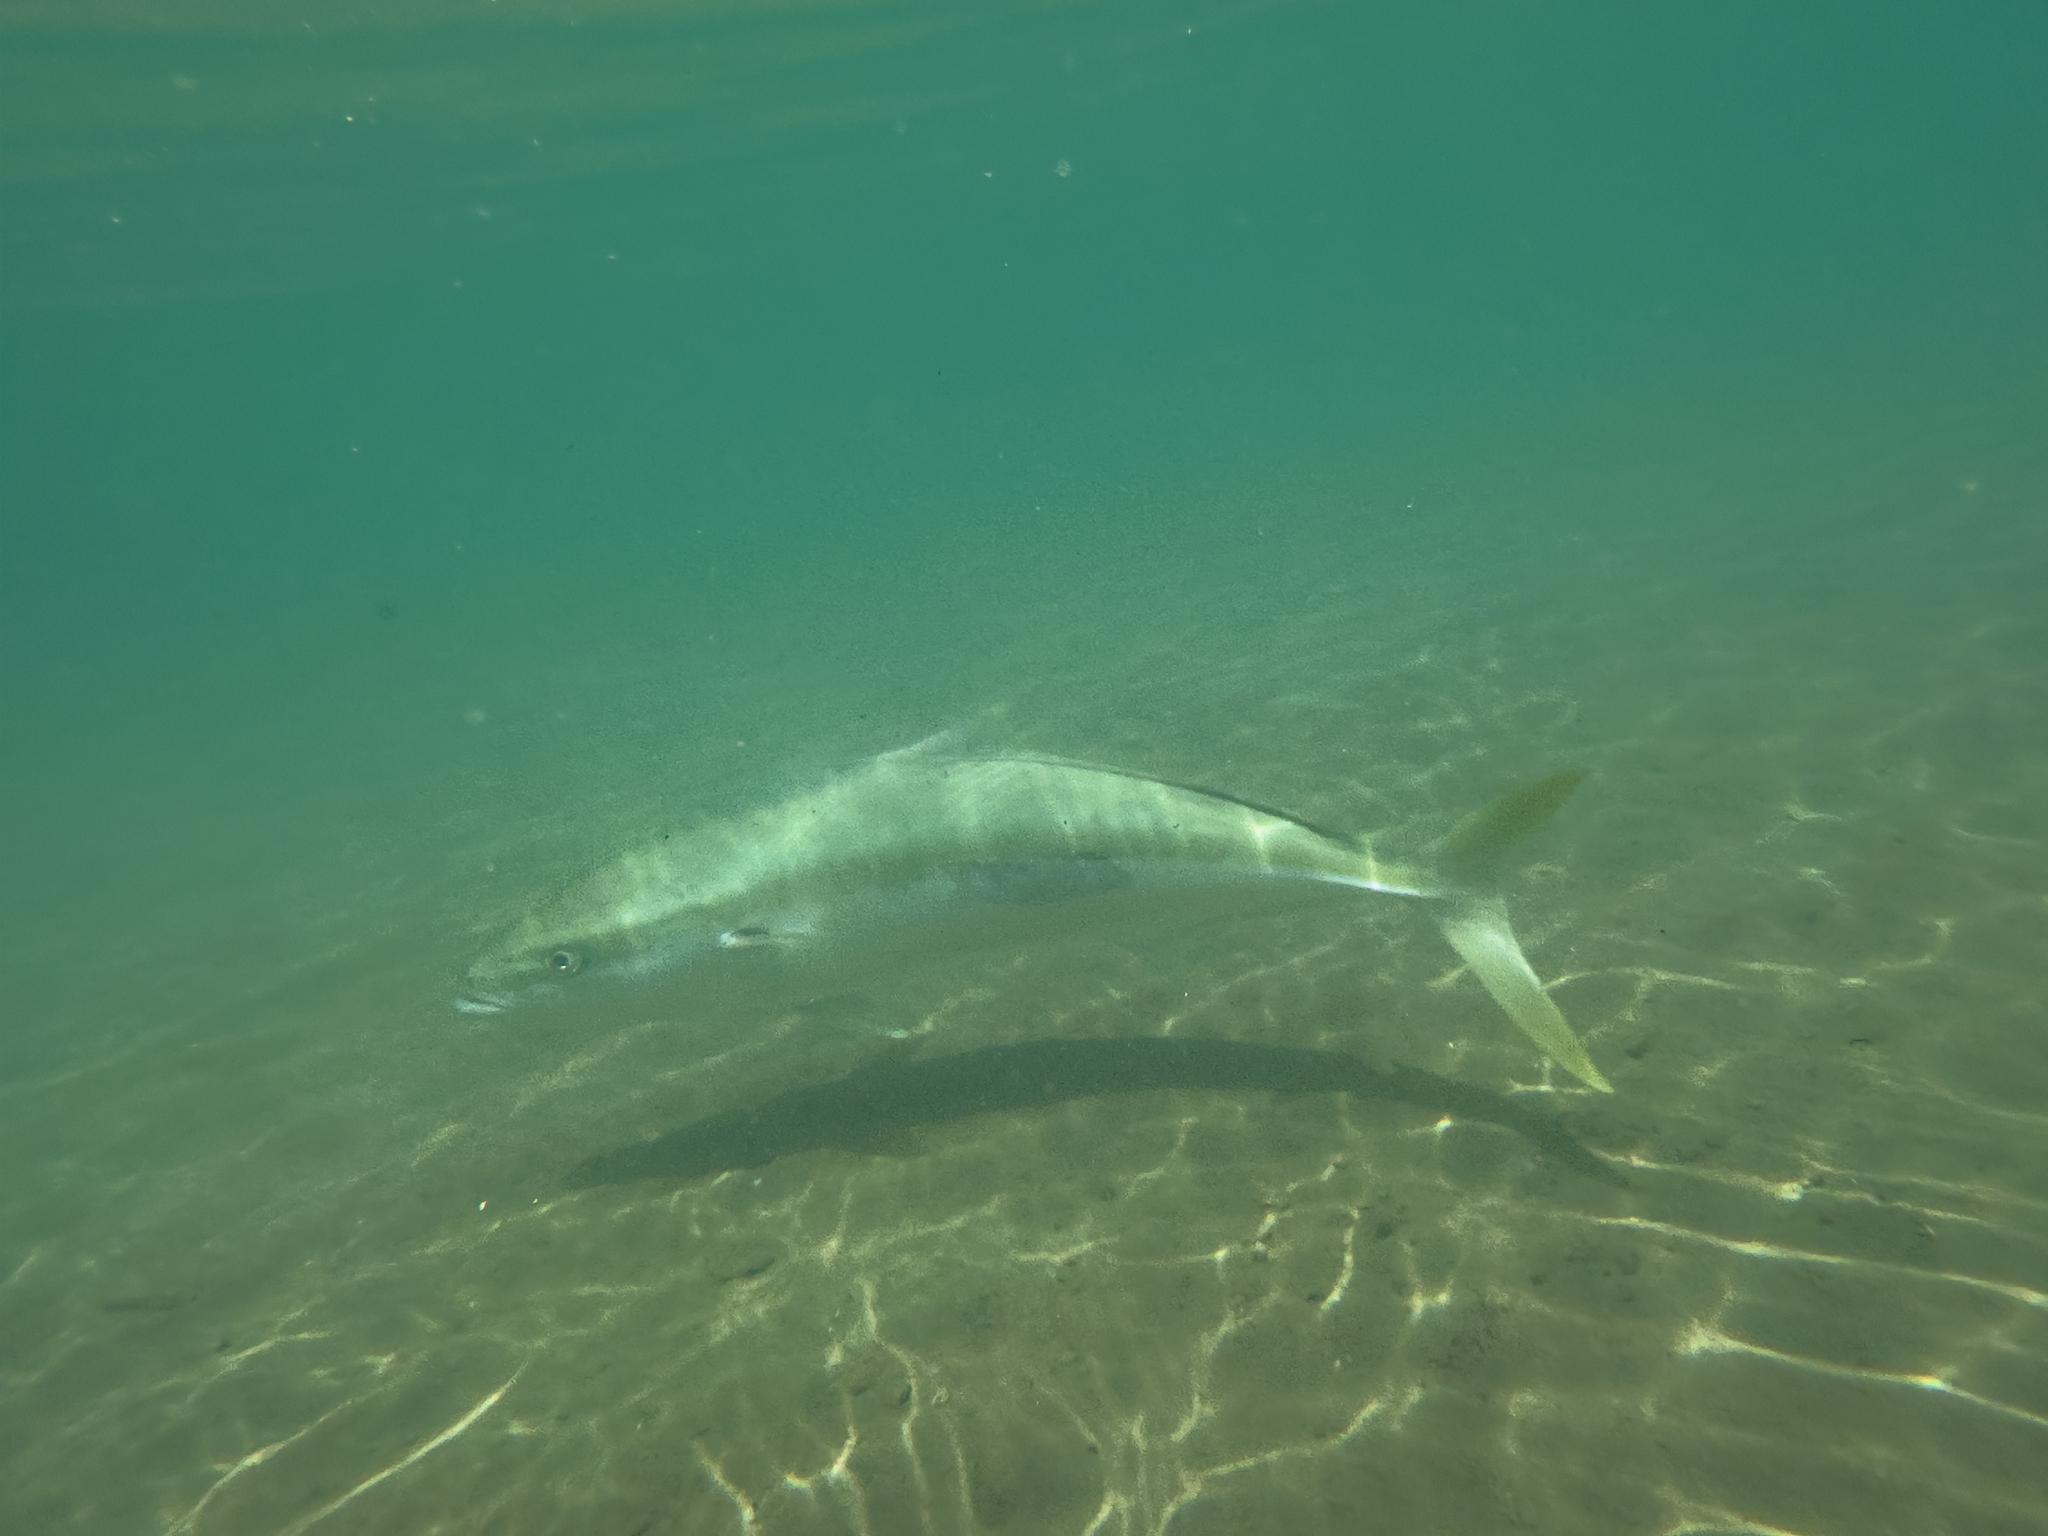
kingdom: Animalia
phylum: Chordata
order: Perciformes
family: Carangidae
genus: Seriola
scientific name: Seriola lalandi
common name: Yellowtail kingfish
